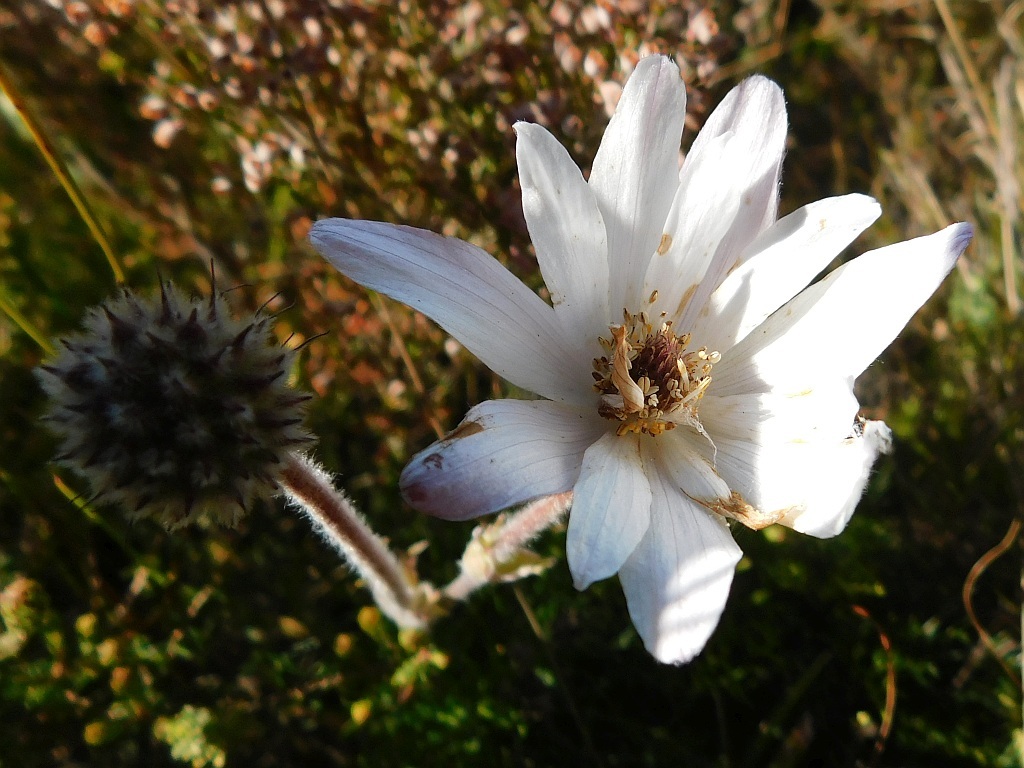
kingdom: Plantae
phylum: Tracheophyta
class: Magnoliopsida
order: Ranunculales
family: Ranunculaceae
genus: Knowltonia
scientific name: Knowltonia tenuifolia
